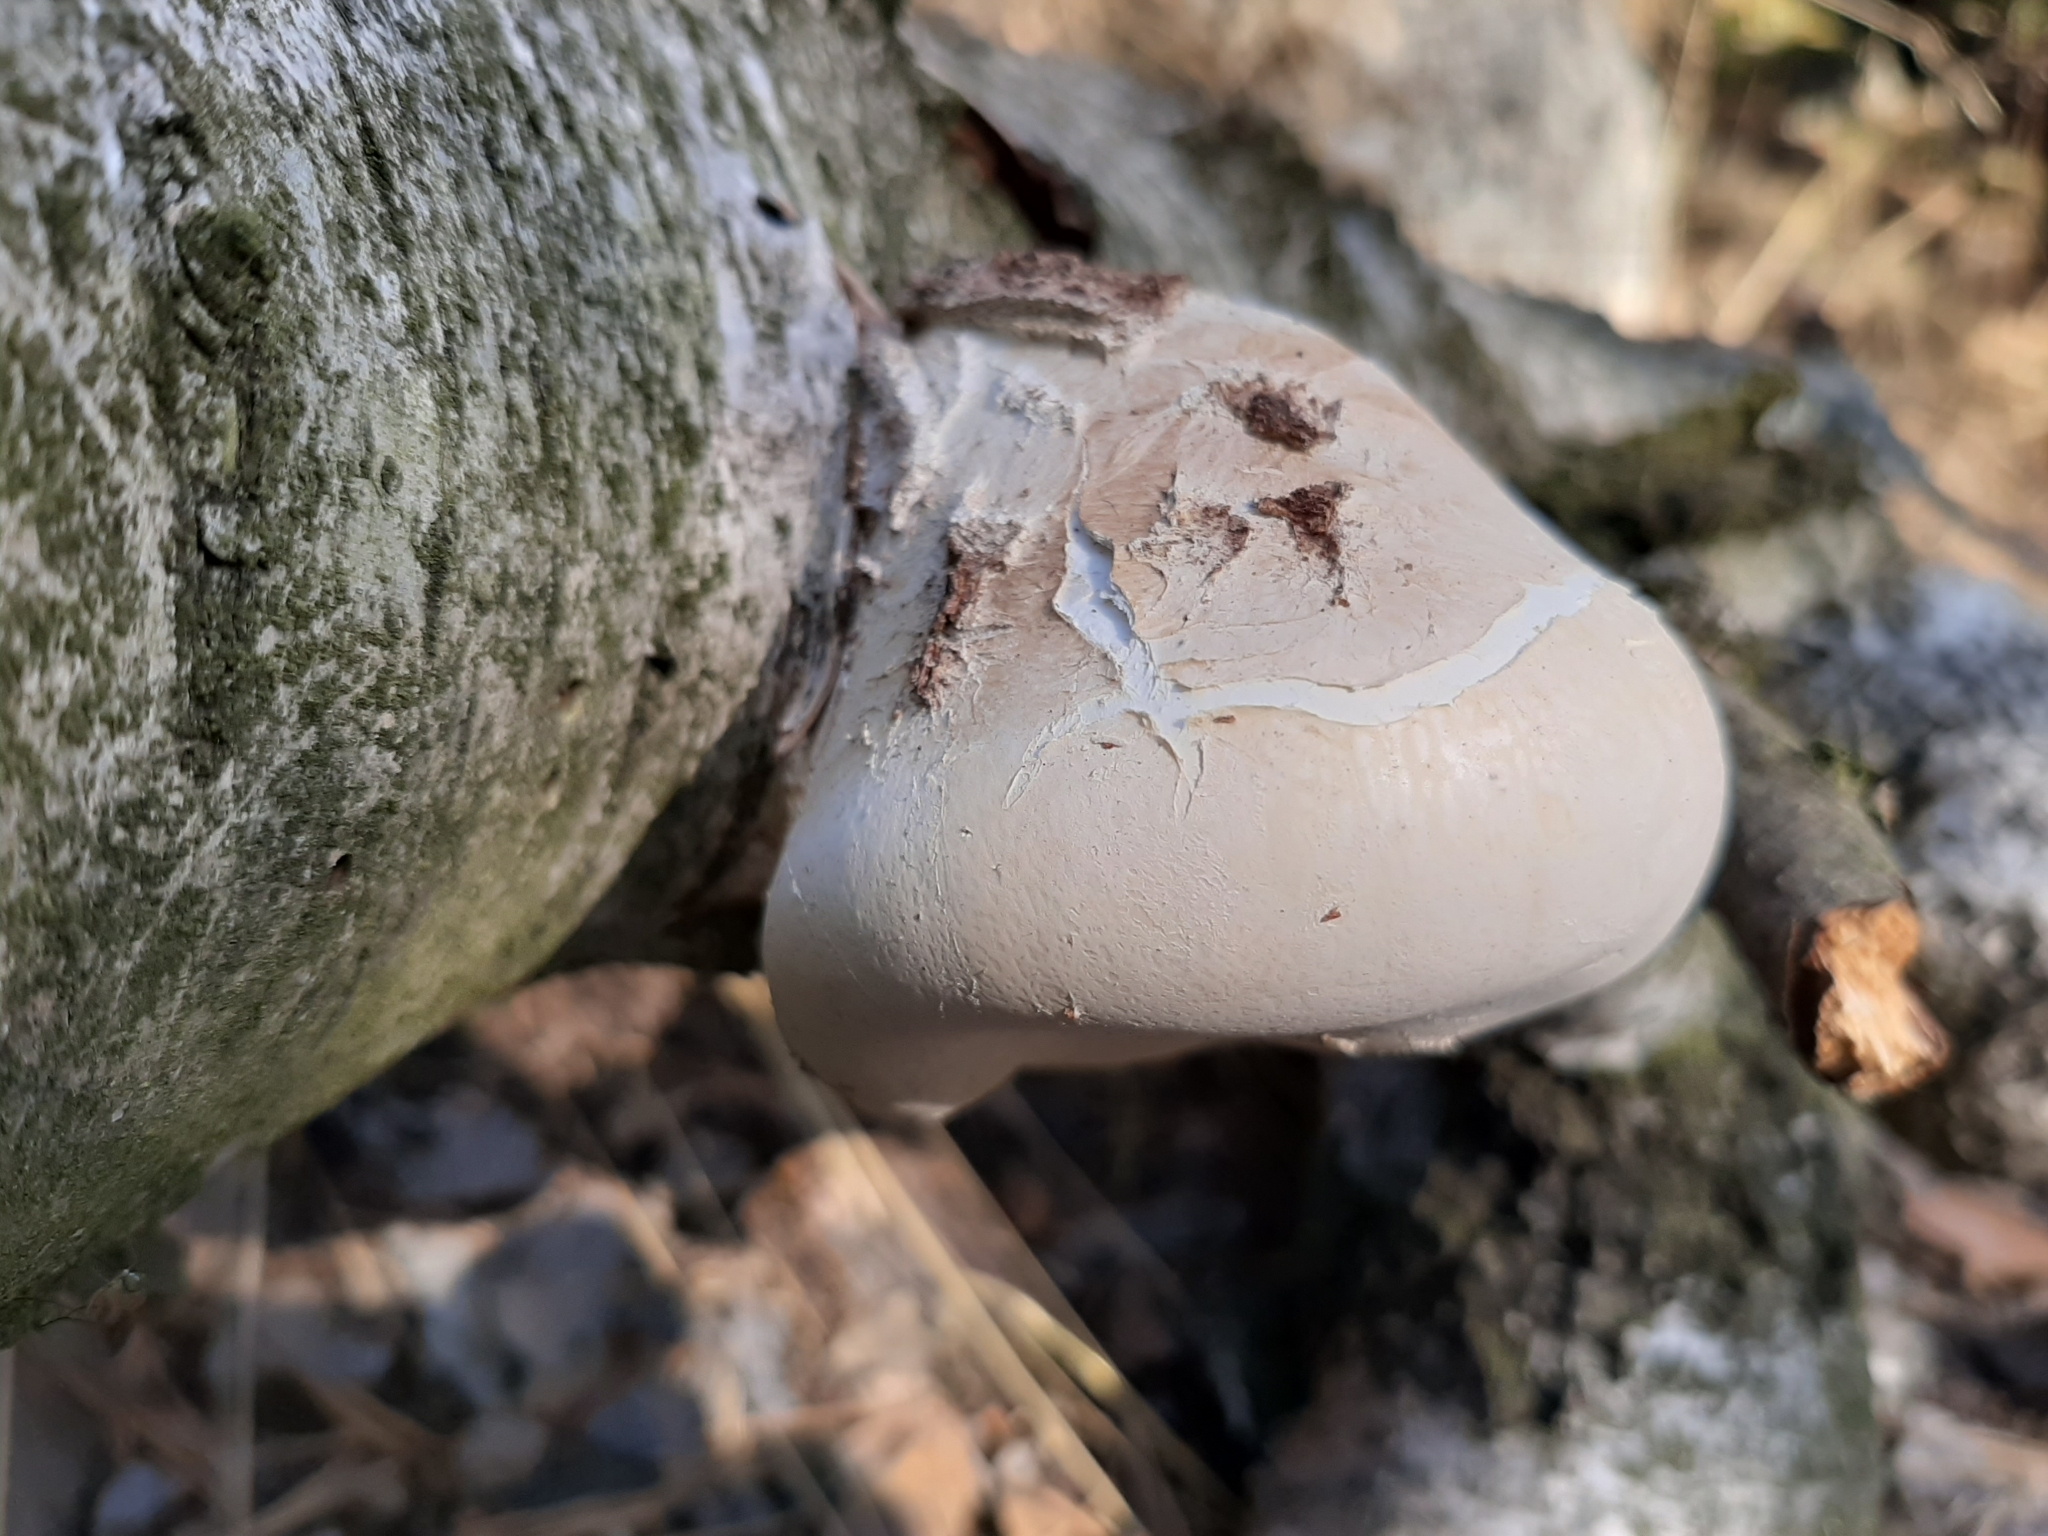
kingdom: Fungi
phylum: Basidiomycota
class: Agaricomycetes
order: Polyporales
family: Fomitopsidaceae
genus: Fomitopsis
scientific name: Fomitopsis betulina
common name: Birch polypore
